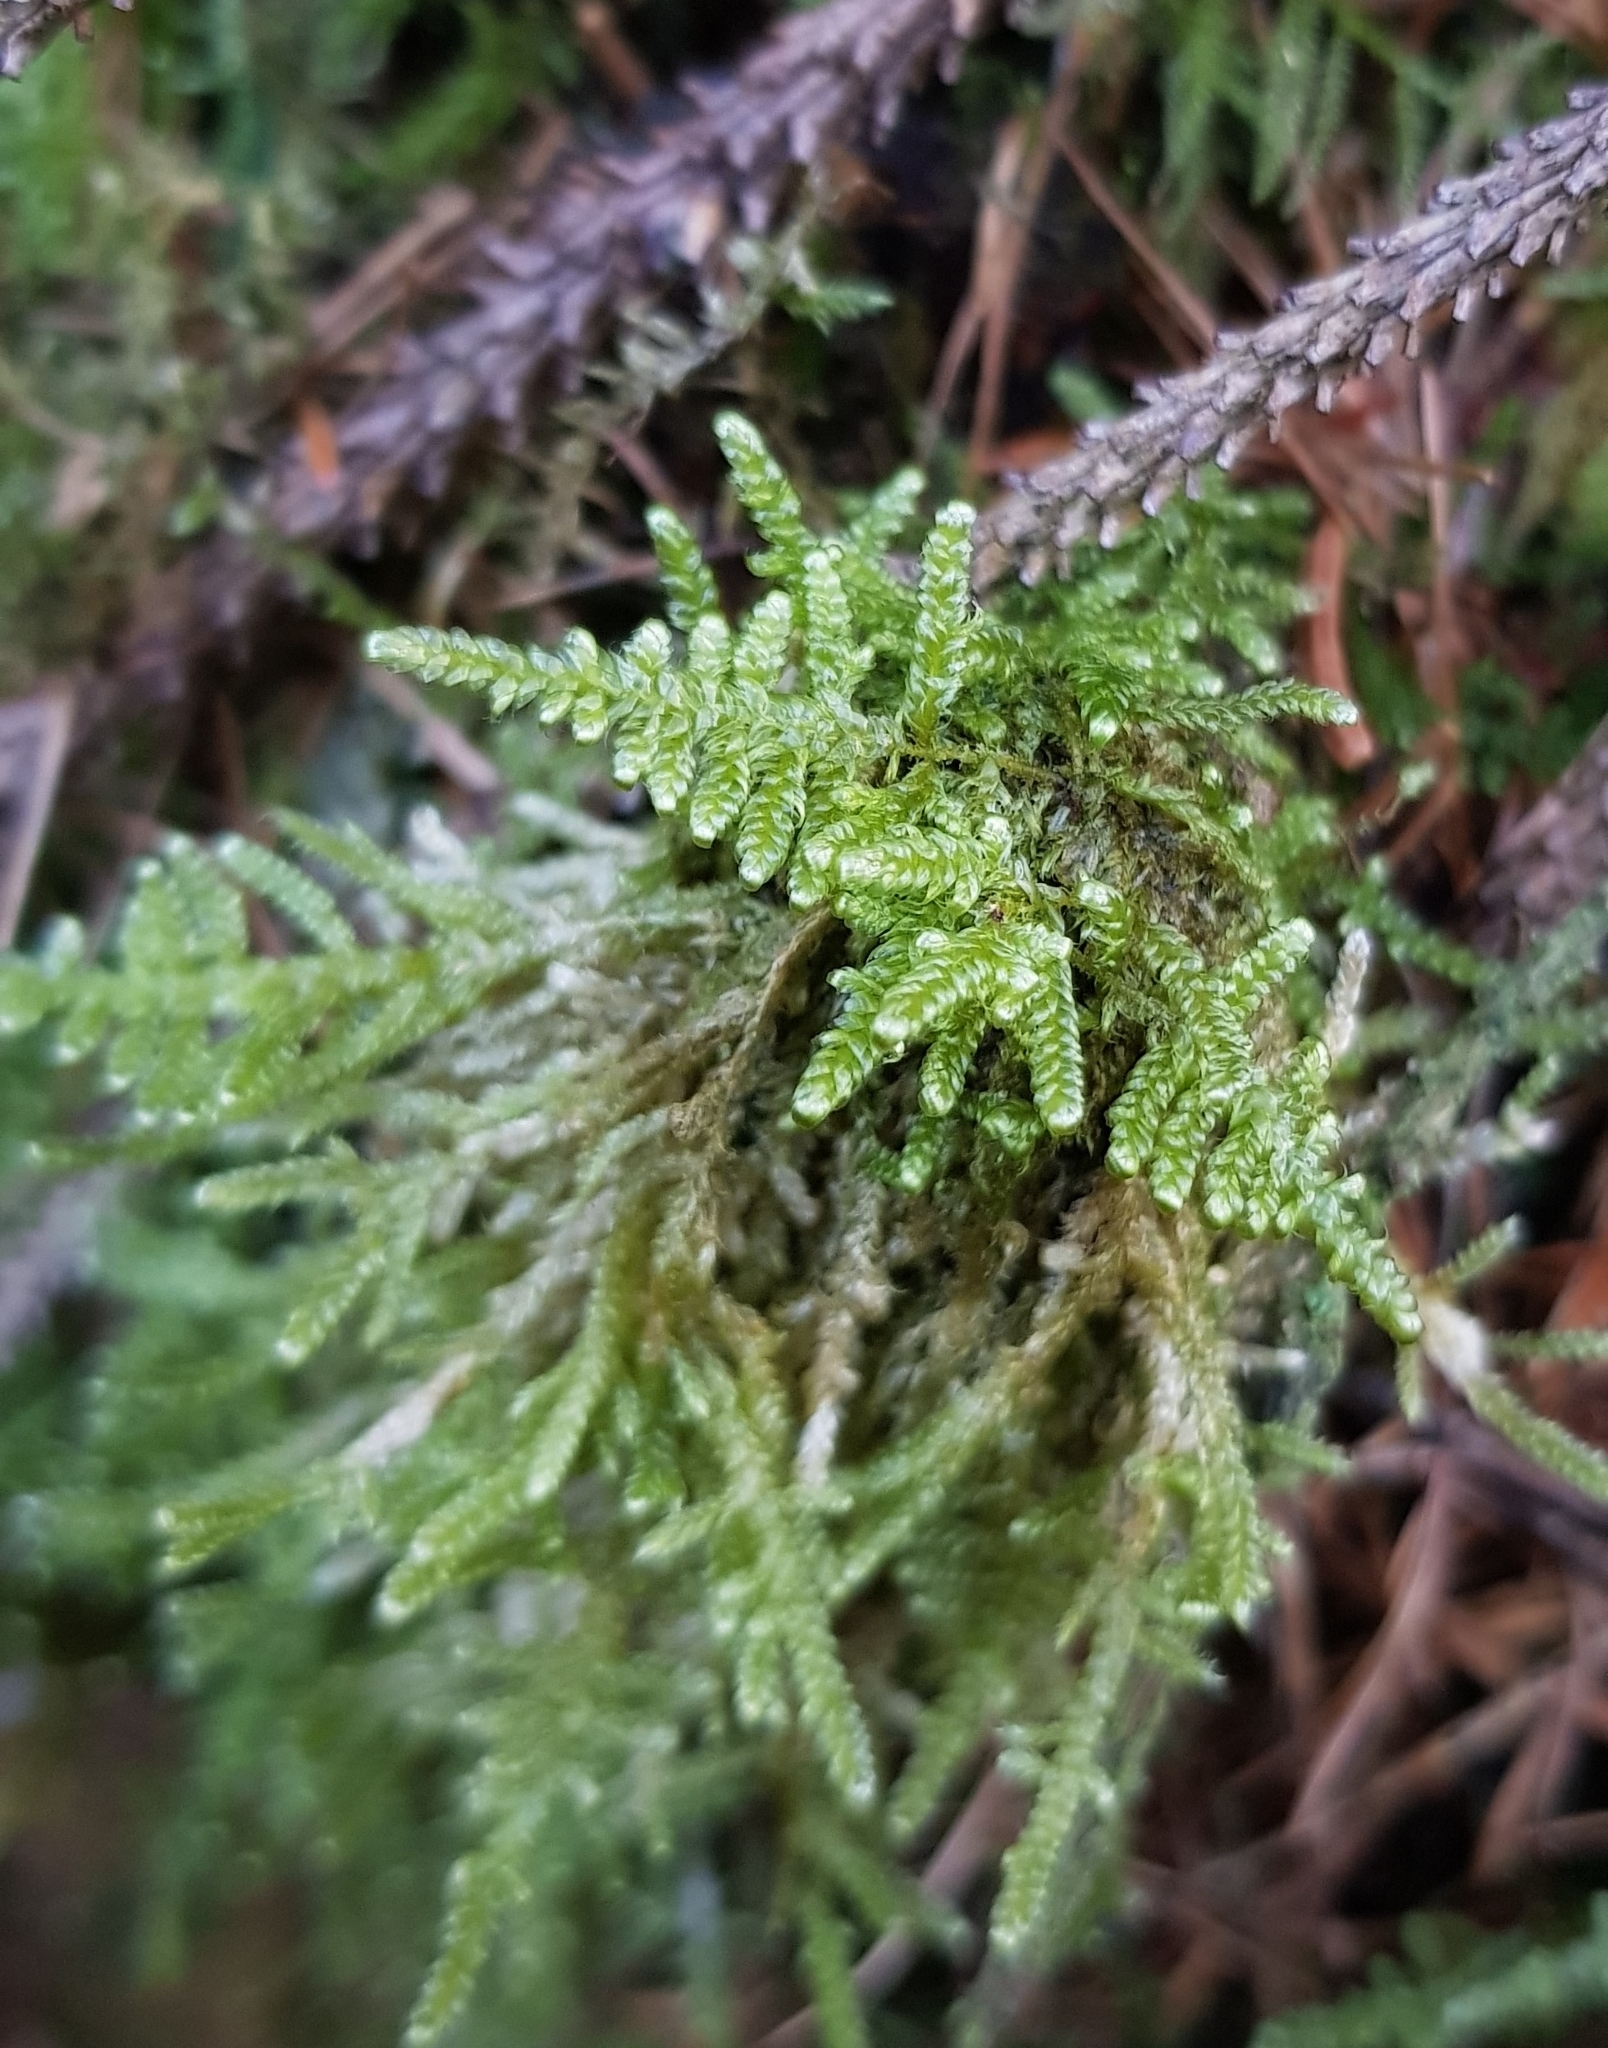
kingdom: Plantae
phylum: Bryophyta
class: Bryopsida
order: Hypnales
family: Hypnaceae
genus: Hypnum
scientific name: Hypnum jutlandicum
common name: Heath plait-moss
